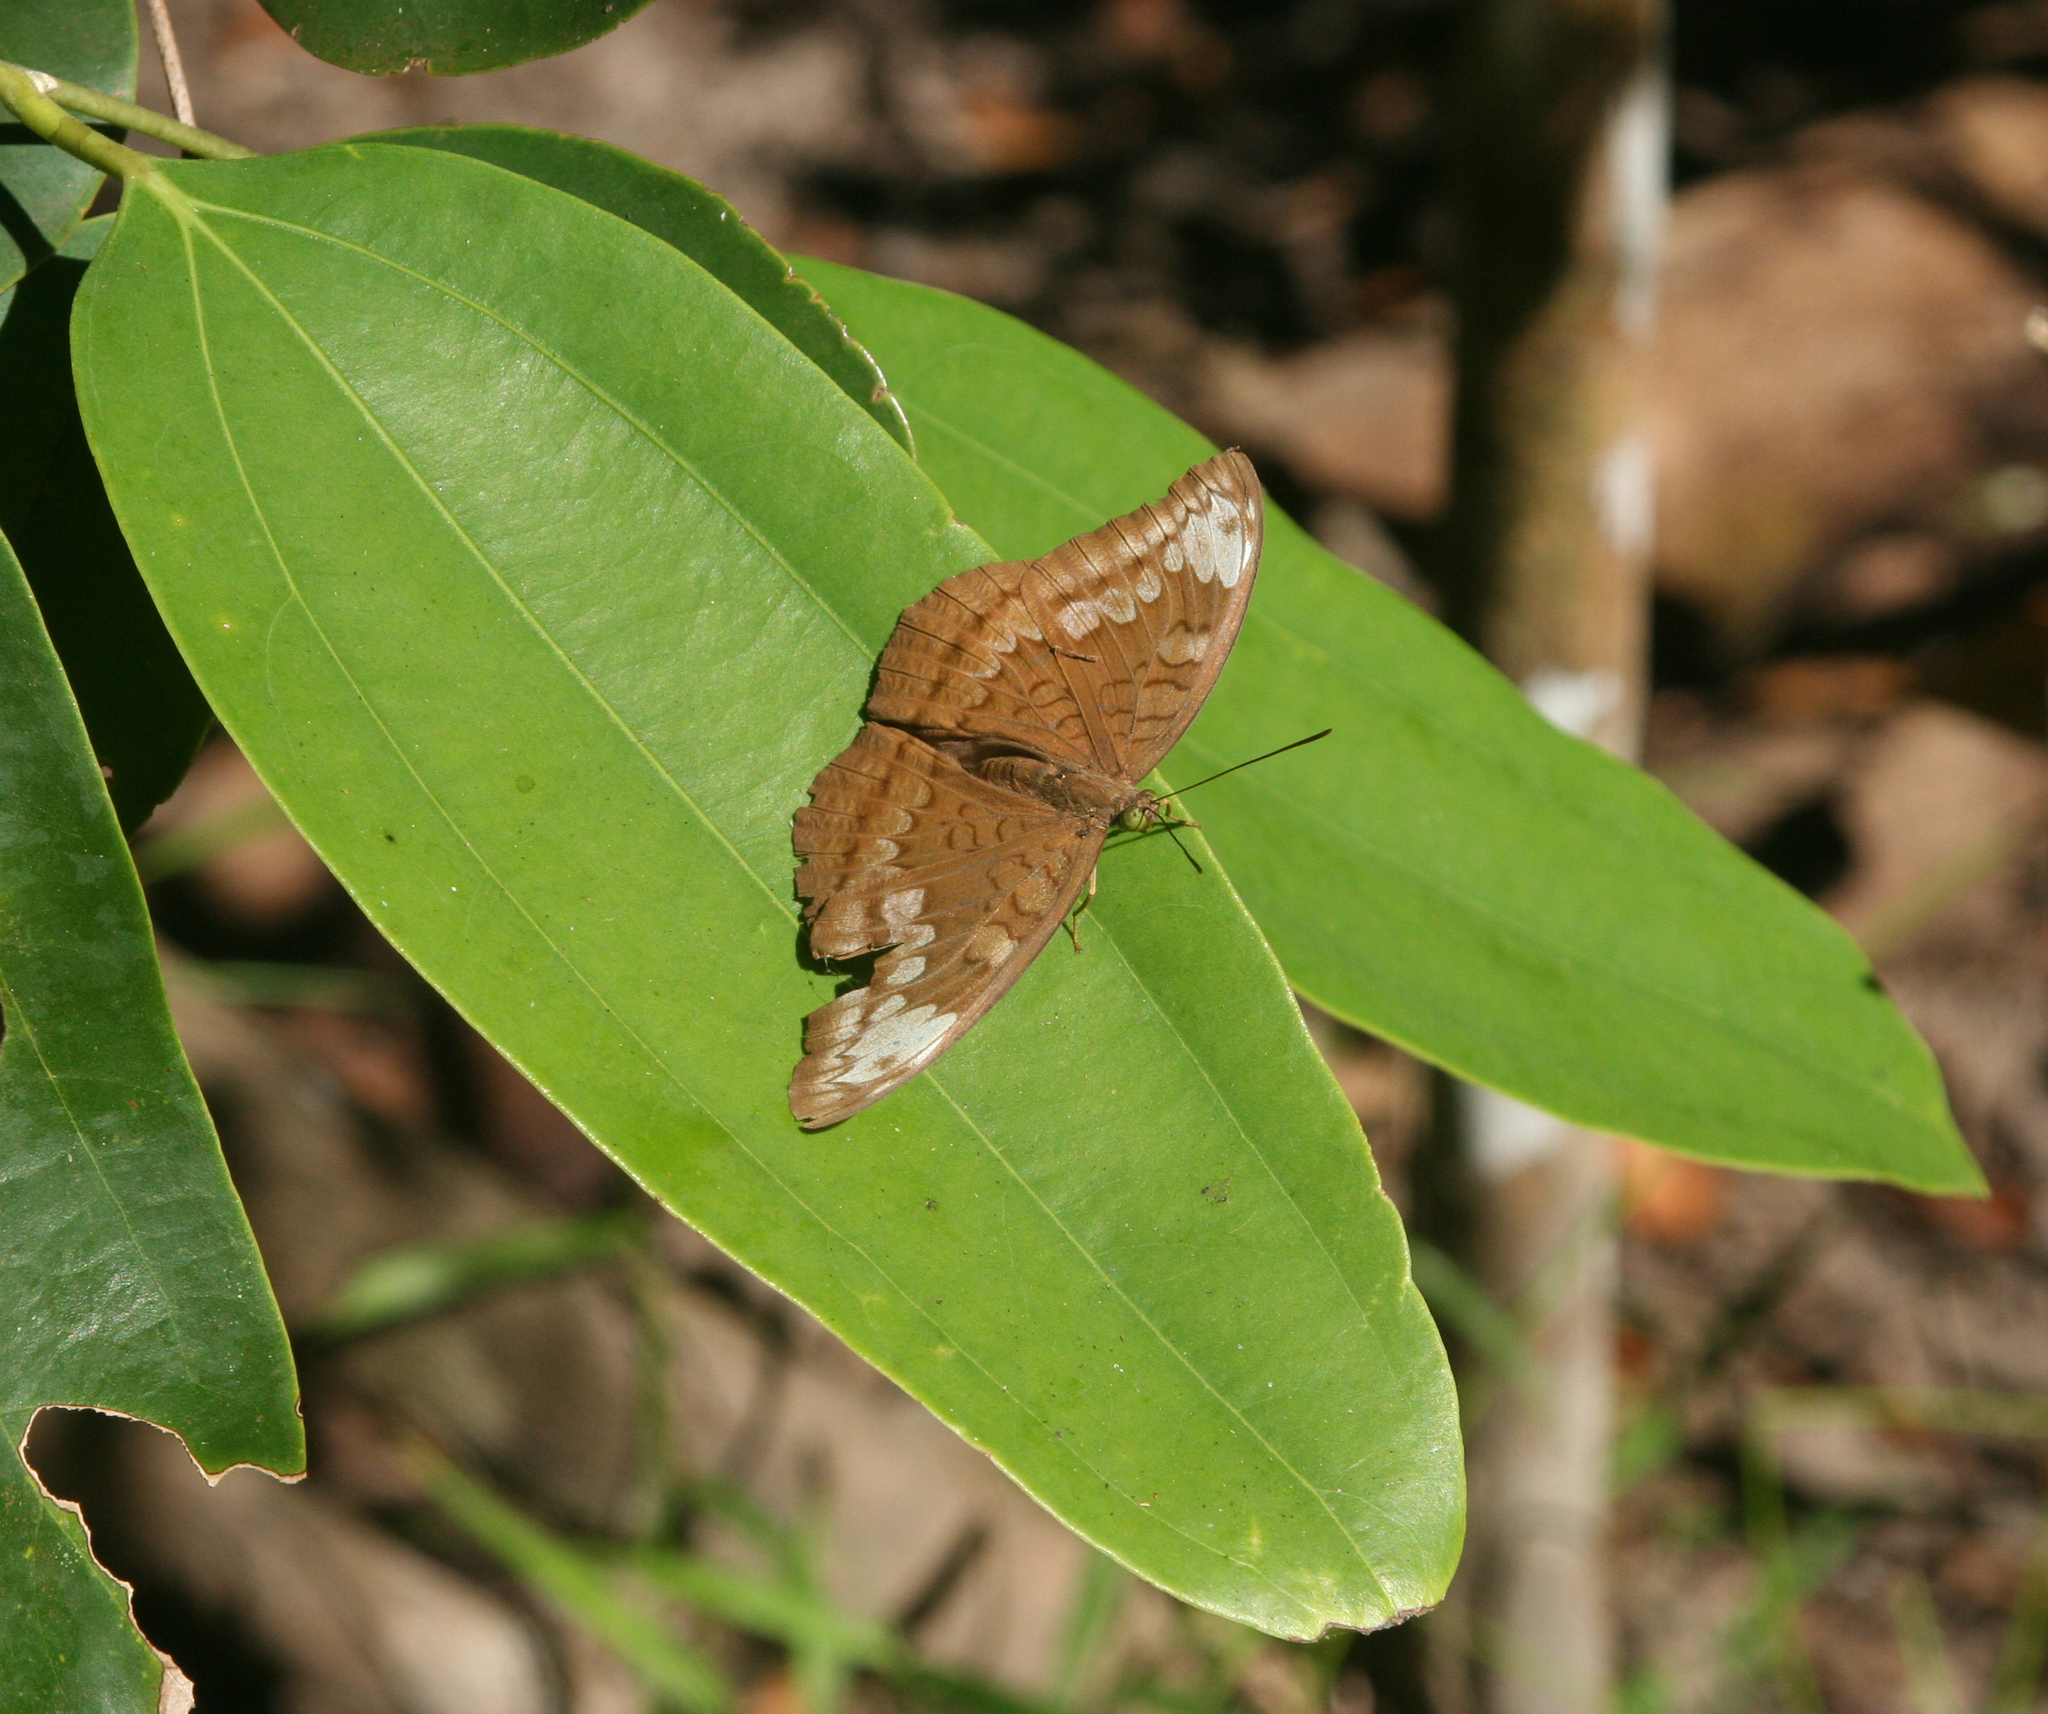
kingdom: Animalia
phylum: Arthropoda
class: Insecta
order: Lepidoptera
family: Nymphalidae
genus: Tanaecia
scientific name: Tanaecia julii
